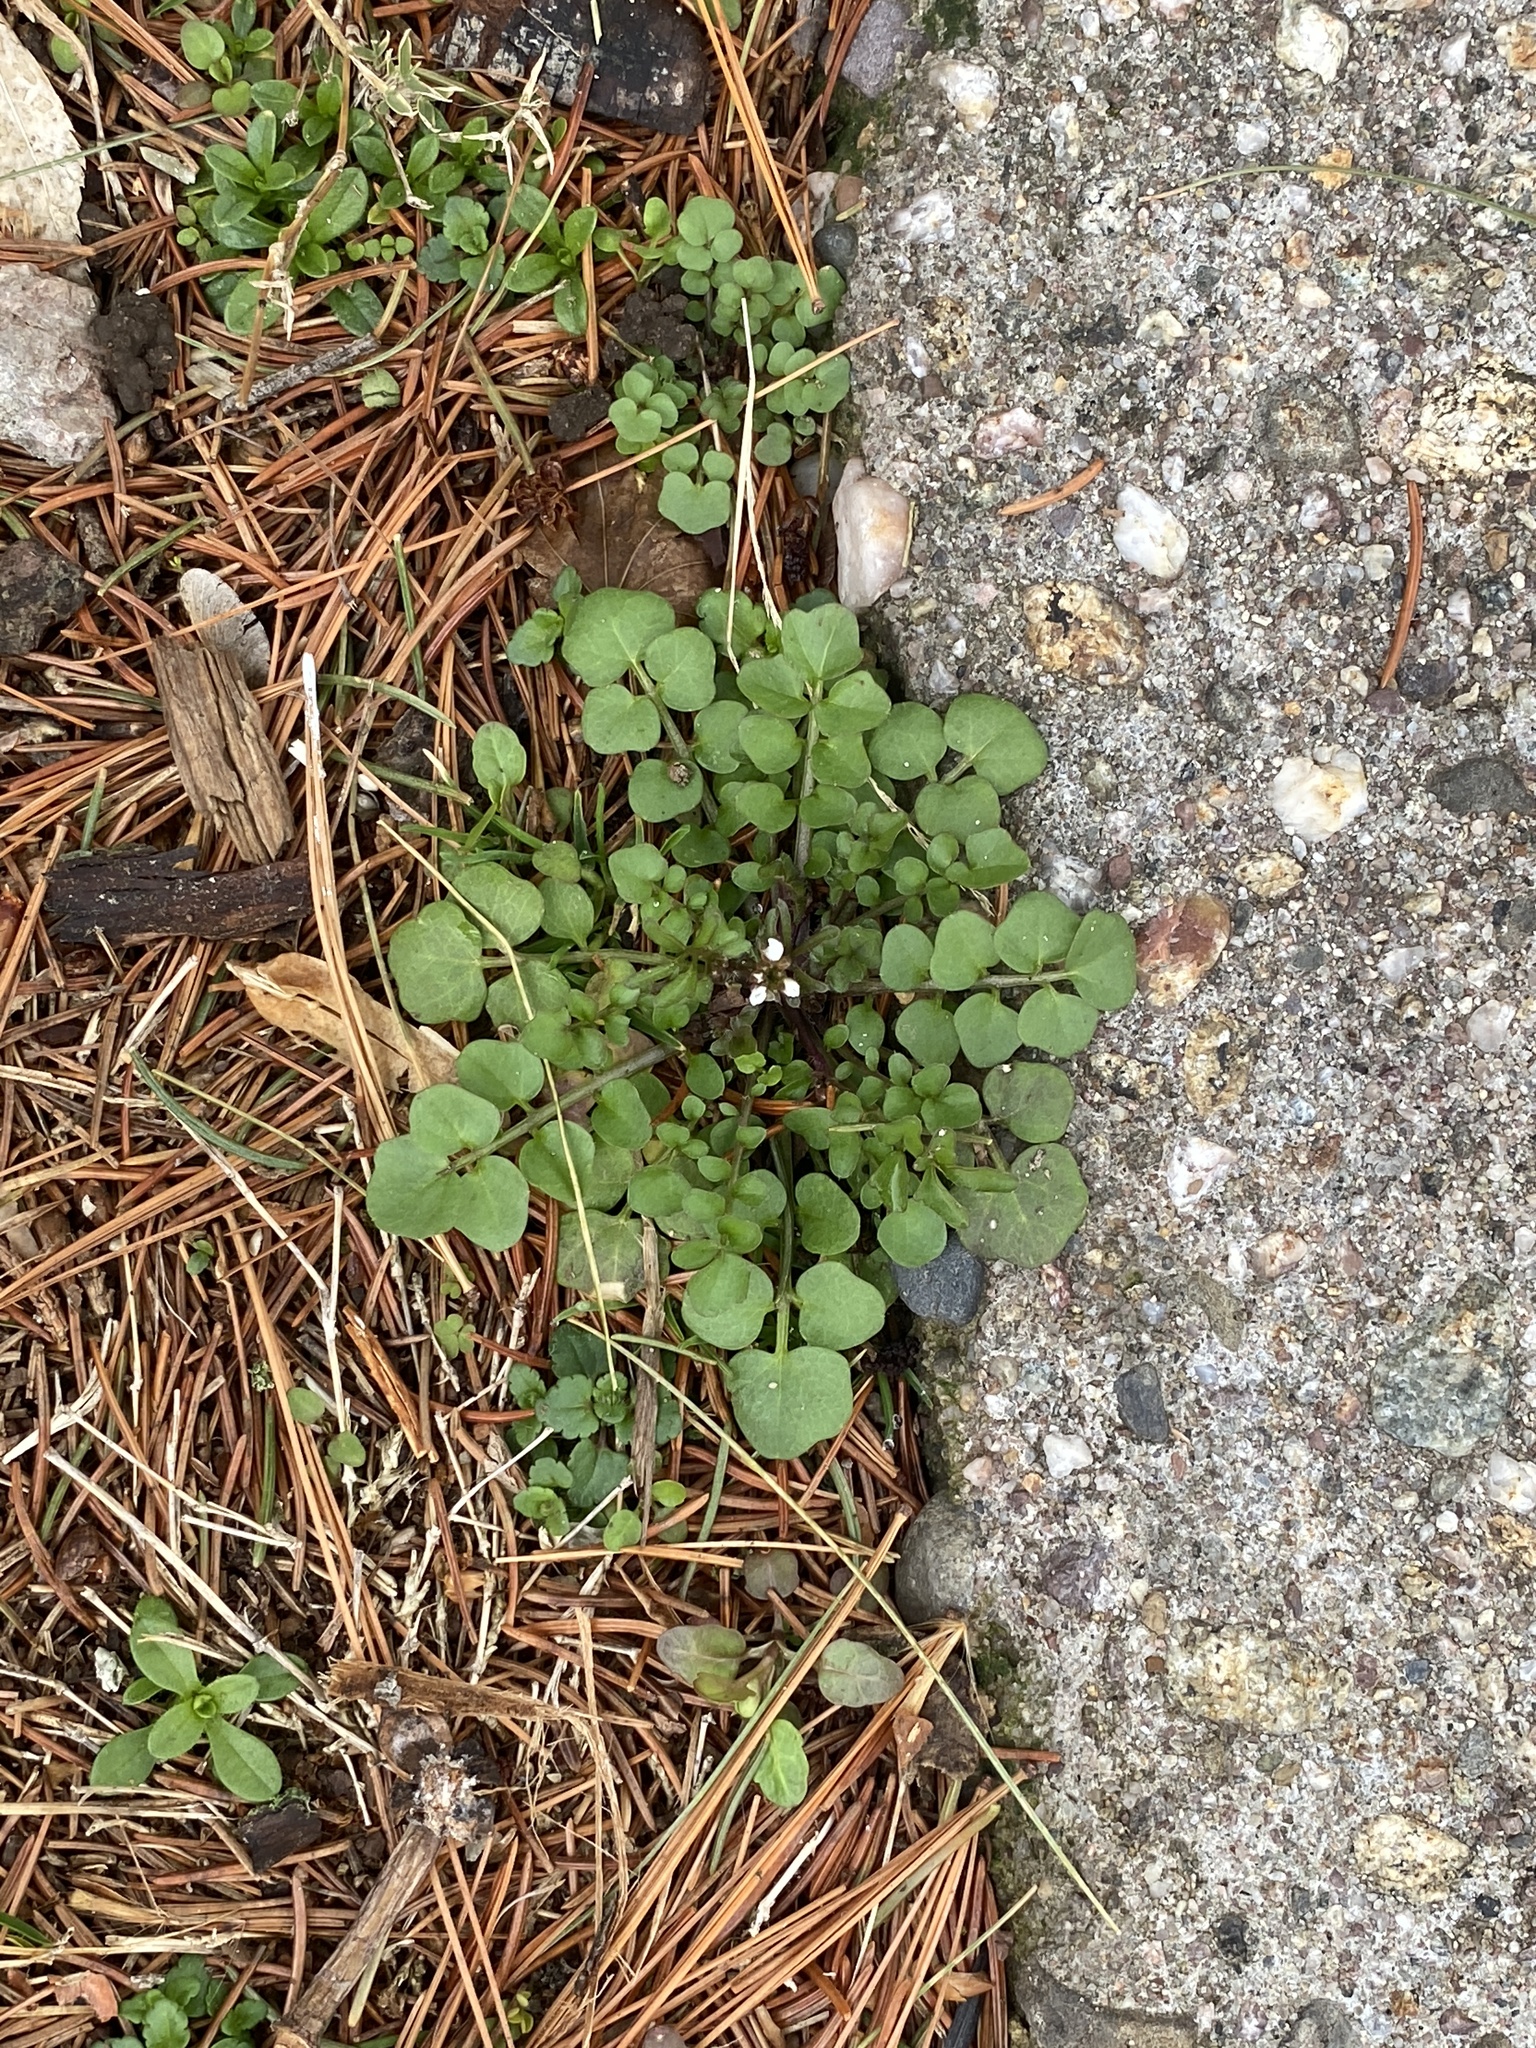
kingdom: Plantae
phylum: Tracheophyta
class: Magnoliopsida
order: Brassicales
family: Brassicaceae
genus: Cardamine
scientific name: Cardamine hirsuta
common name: Hairy bittercress
